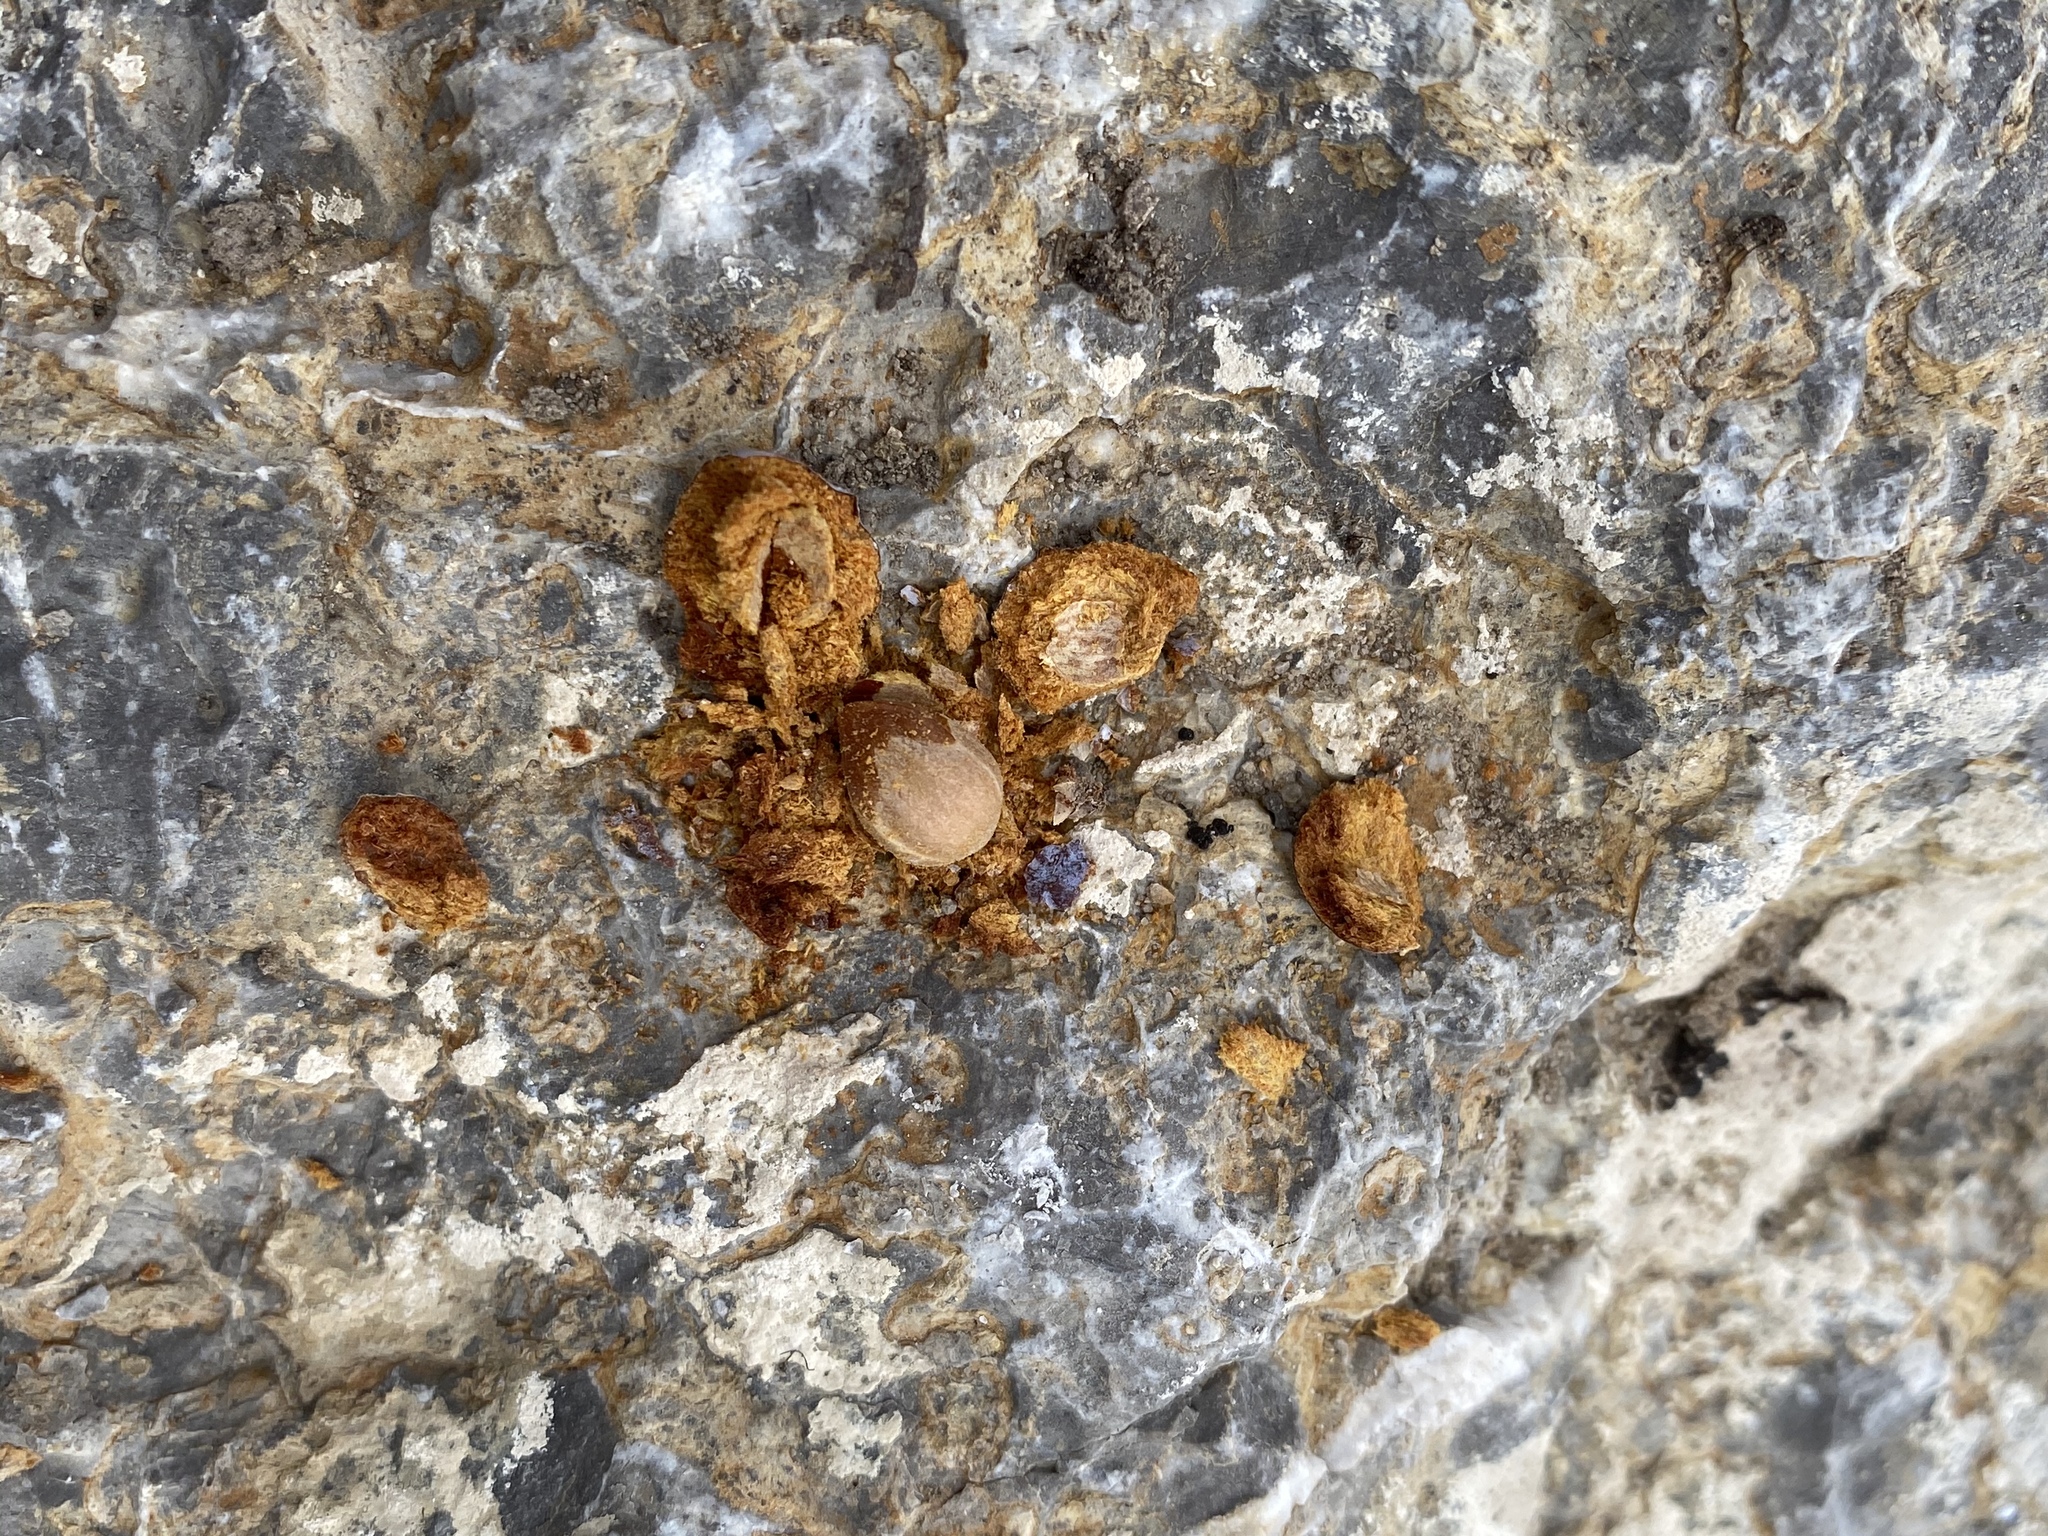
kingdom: Plantae
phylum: Tracheophyta
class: Pinopsida
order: Pinales
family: Cupressaceae
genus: Juniperus
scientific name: Juniperus osteosperma
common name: Utah juniper
